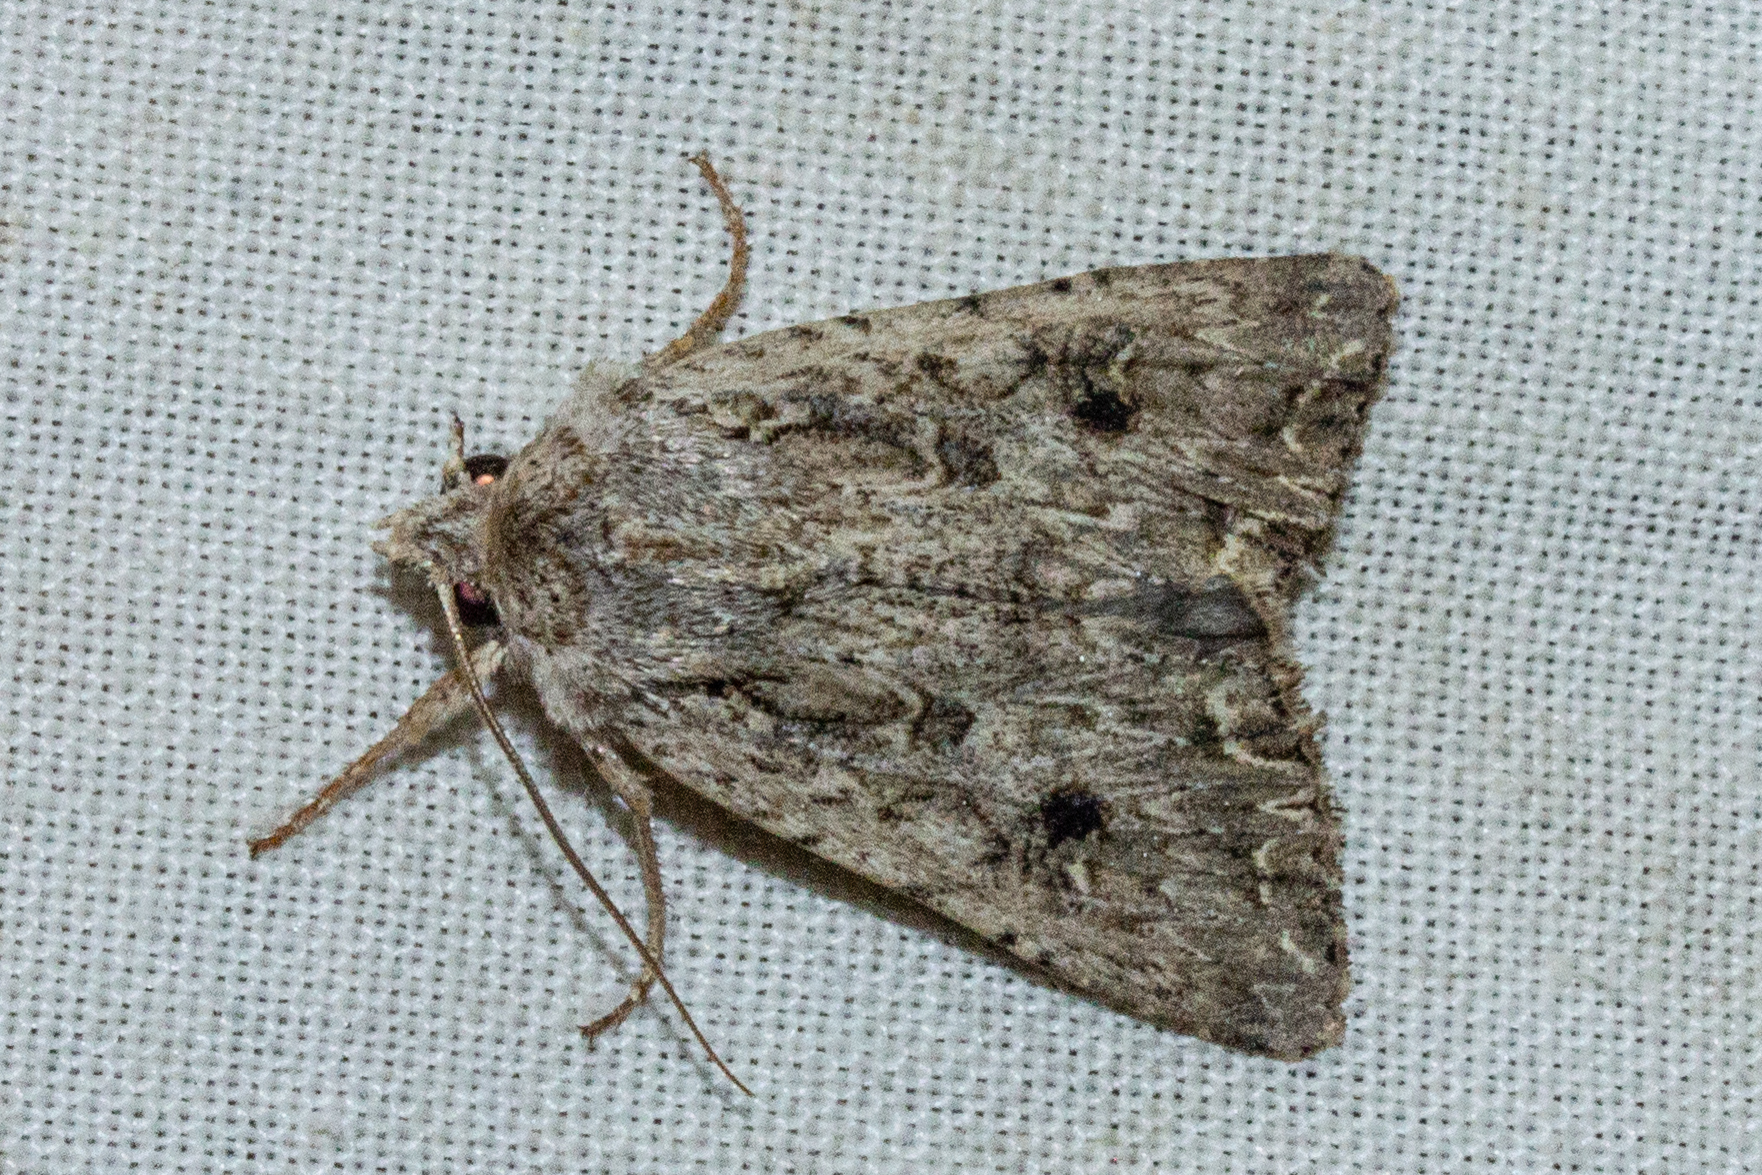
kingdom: Animalia
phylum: Arthropoda
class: Insecta
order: Lepidoptera
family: Noctuidae
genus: Ichneutica
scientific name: Ichneutica lignana
